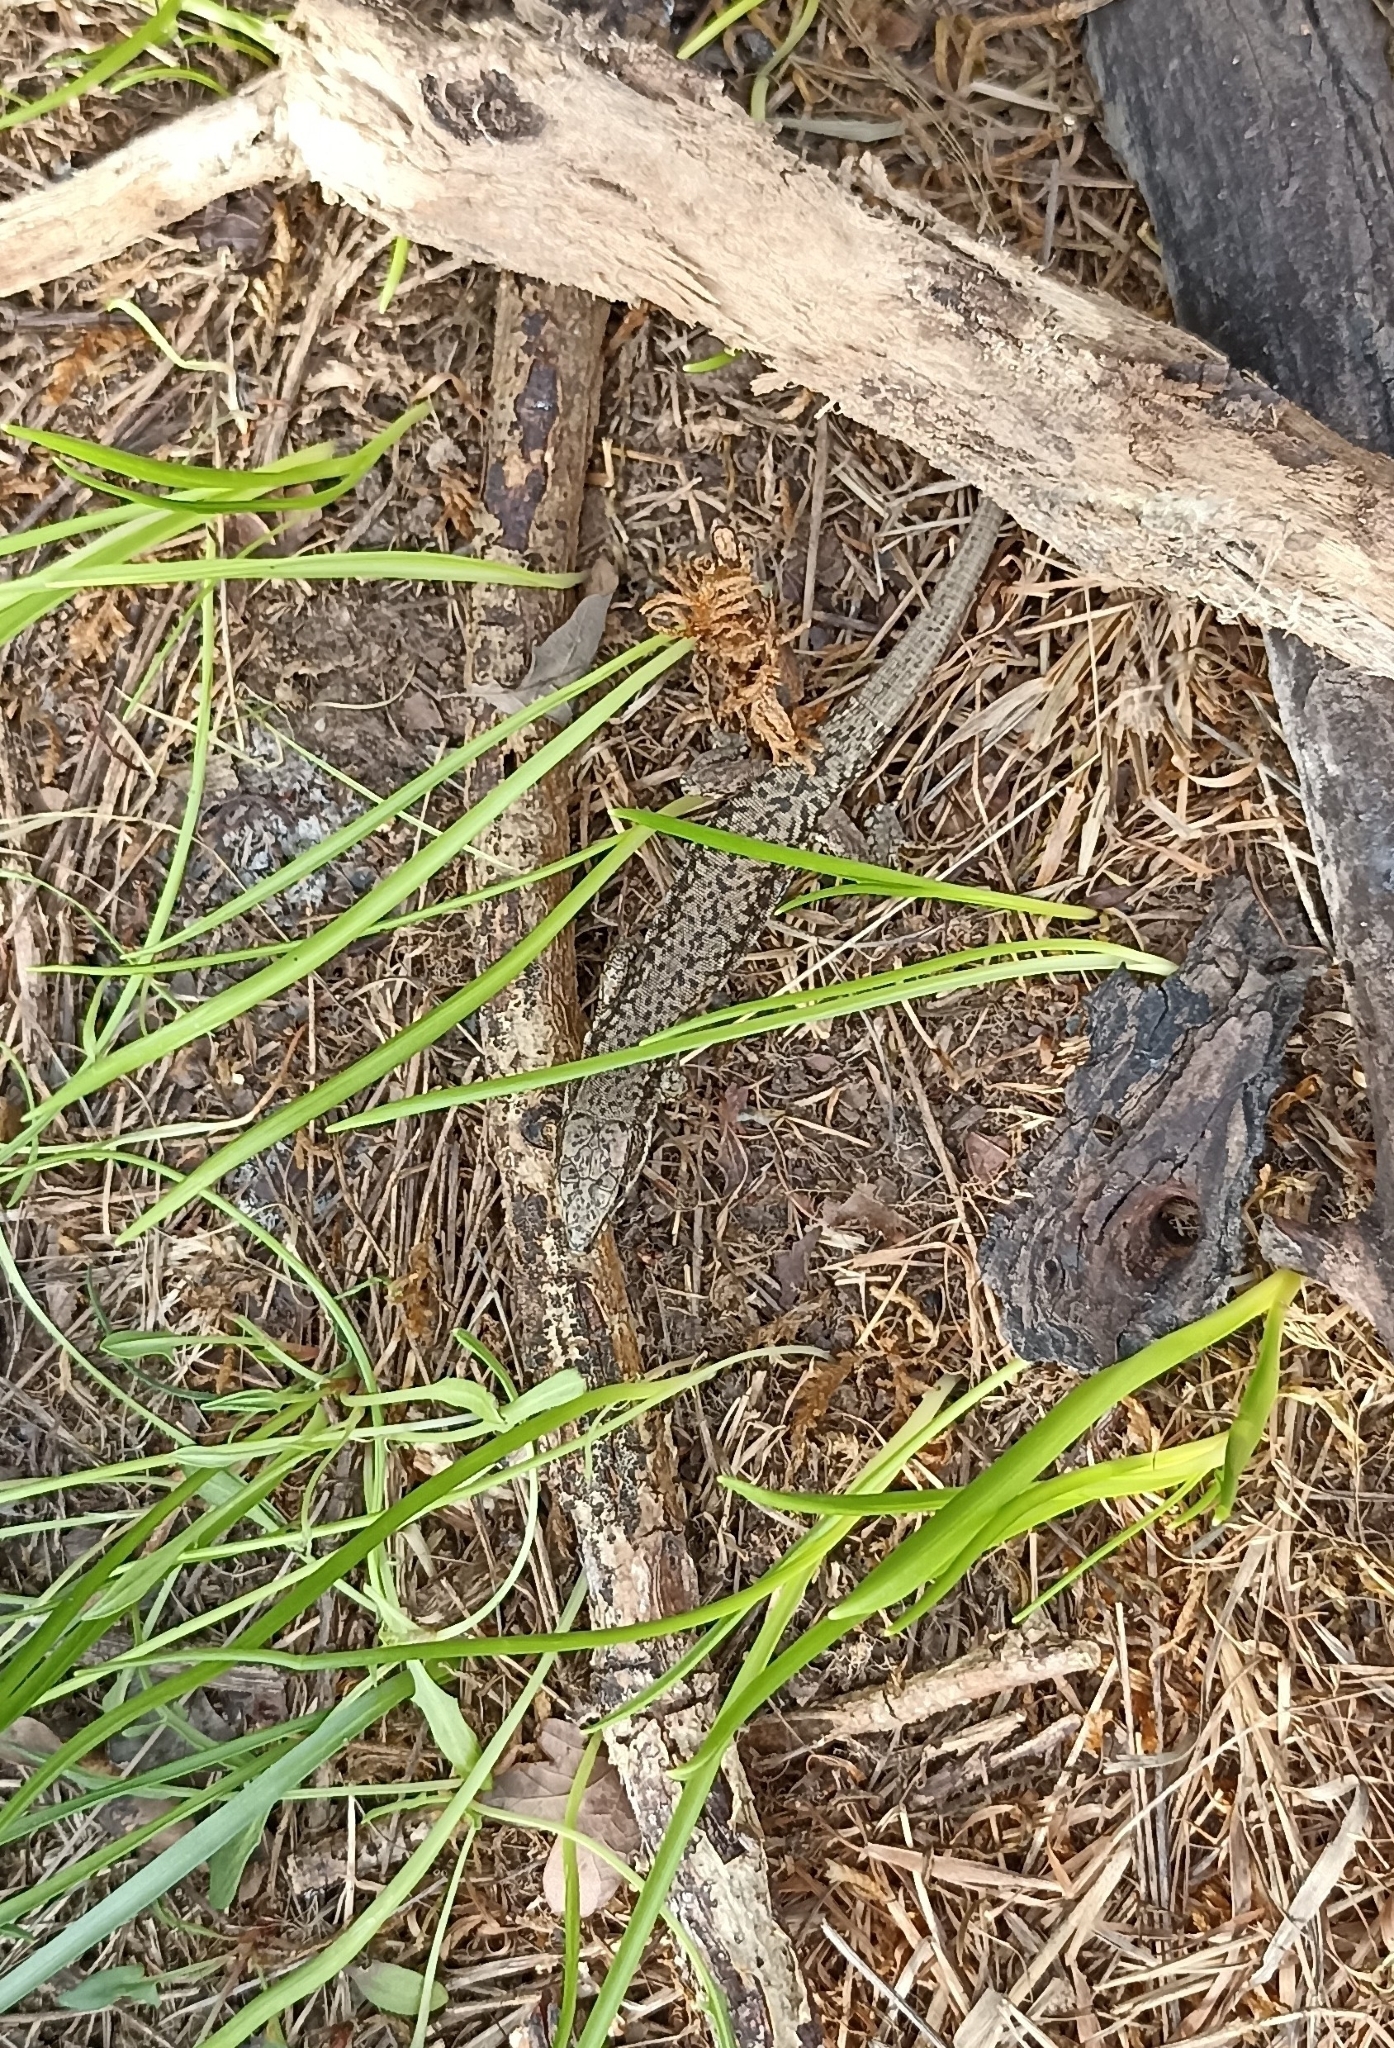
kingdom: Animalia
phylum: Chordata
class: Squamata
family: Lacertidae
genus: Podarcis
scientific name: Podarcis muralis
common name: Common wall lizard
